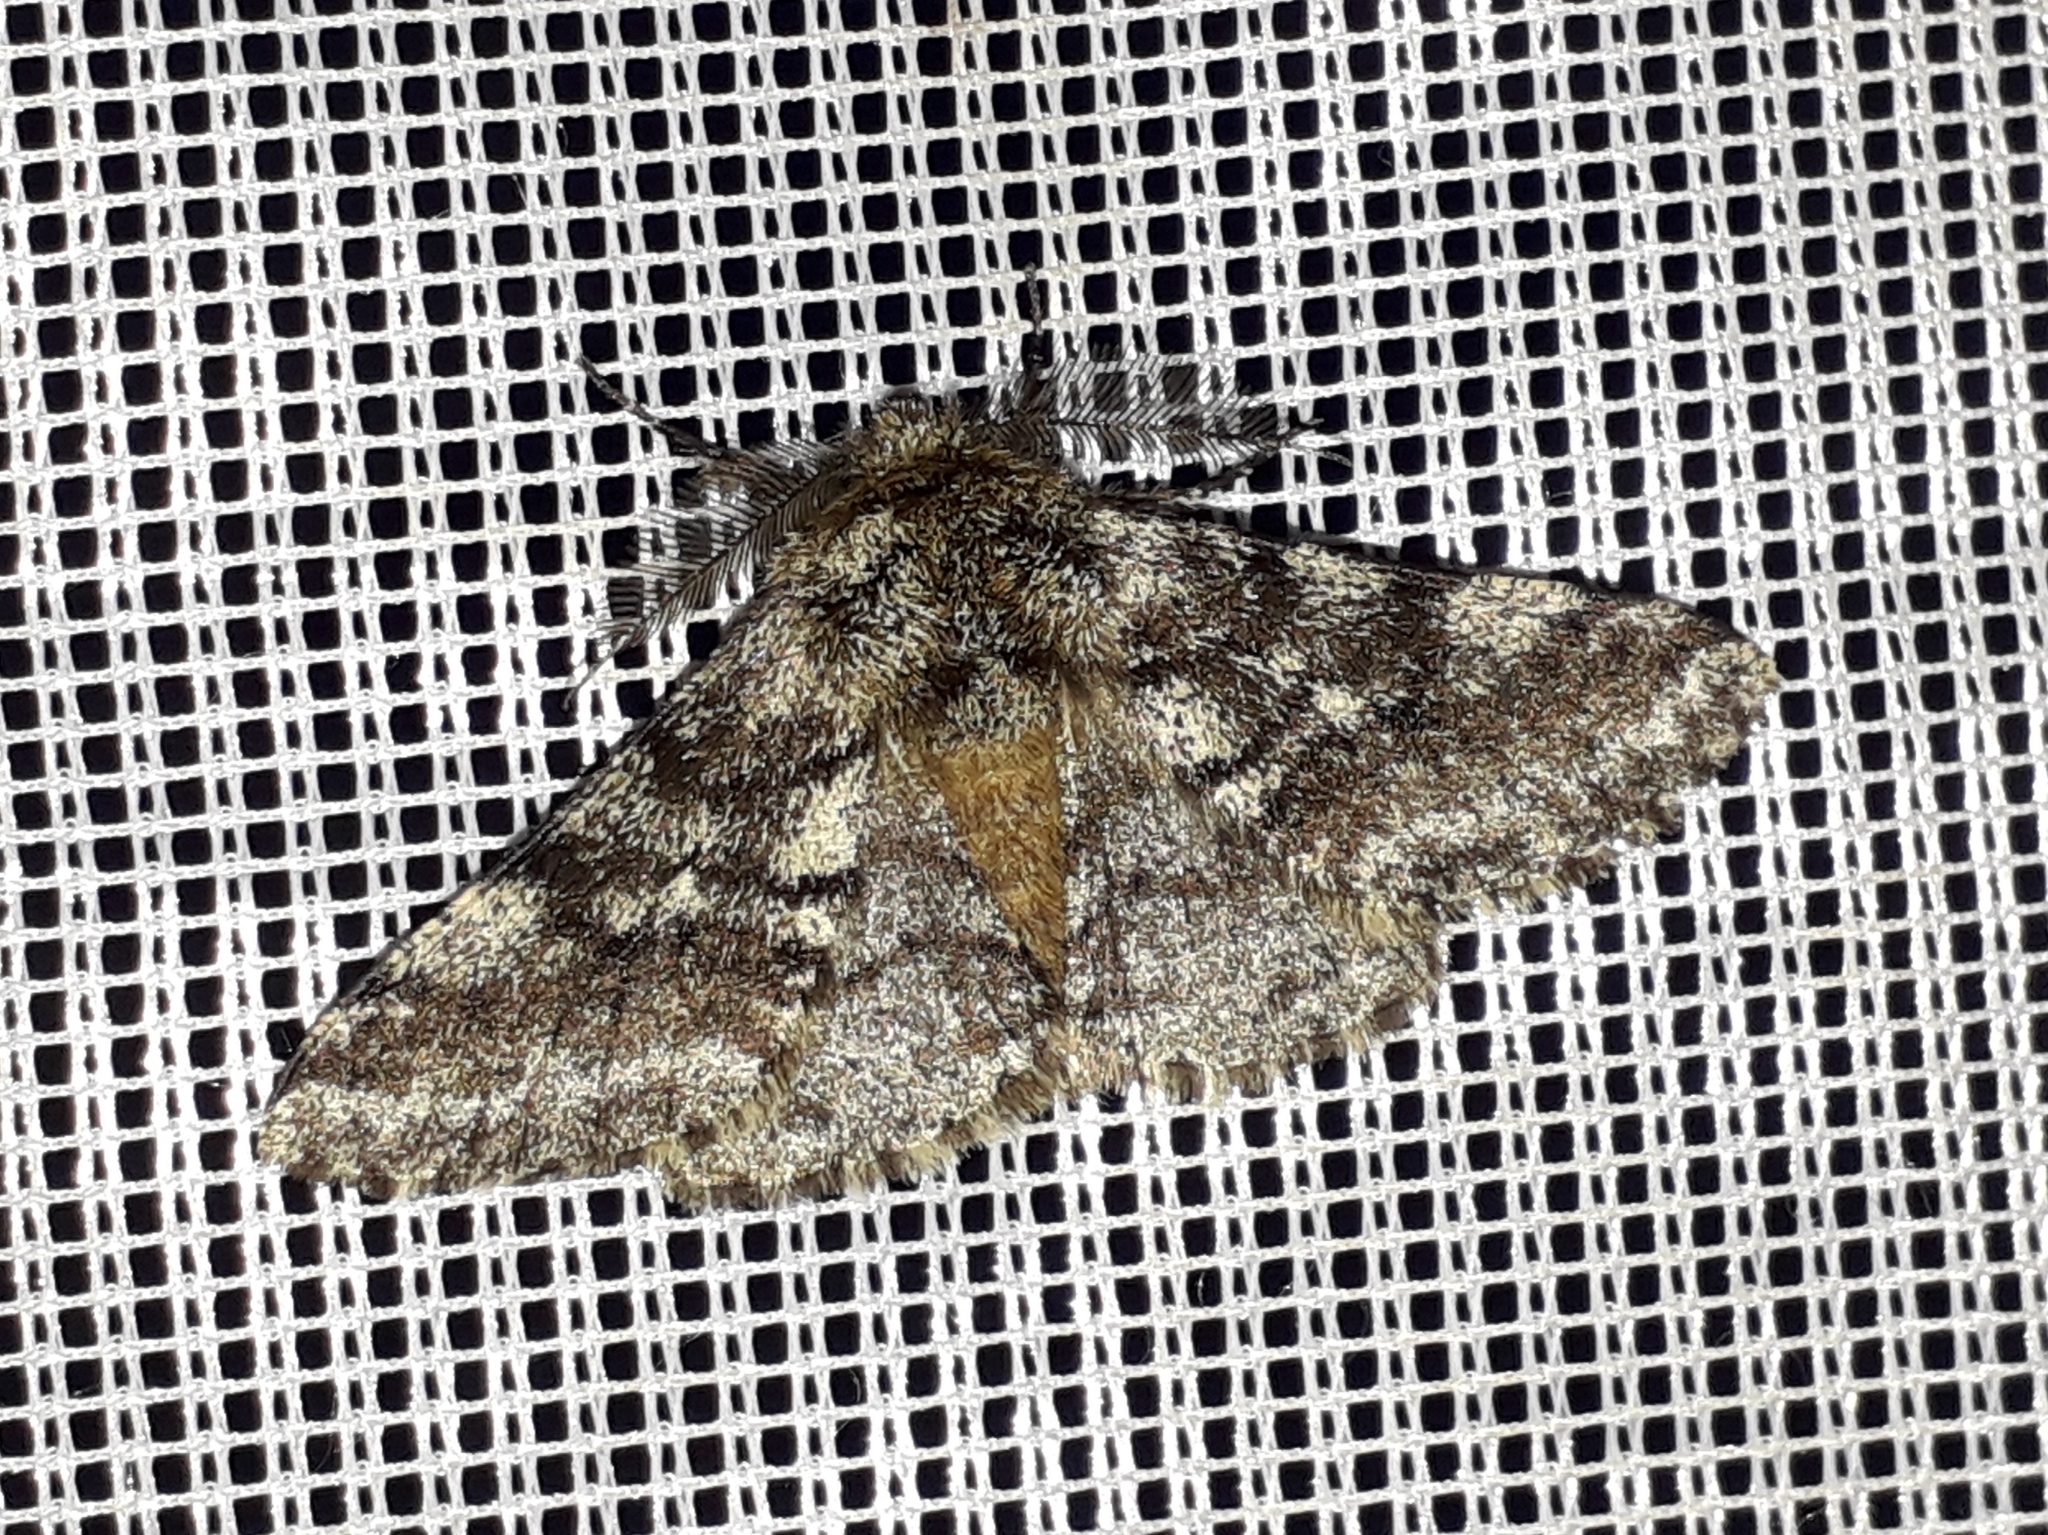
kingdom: Animalia
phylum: Arthropoda
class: Insecta
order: Lepidoptera
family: Geometridae
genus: Lycia
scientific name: Lycia hirtaria
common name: Brindled beauty
